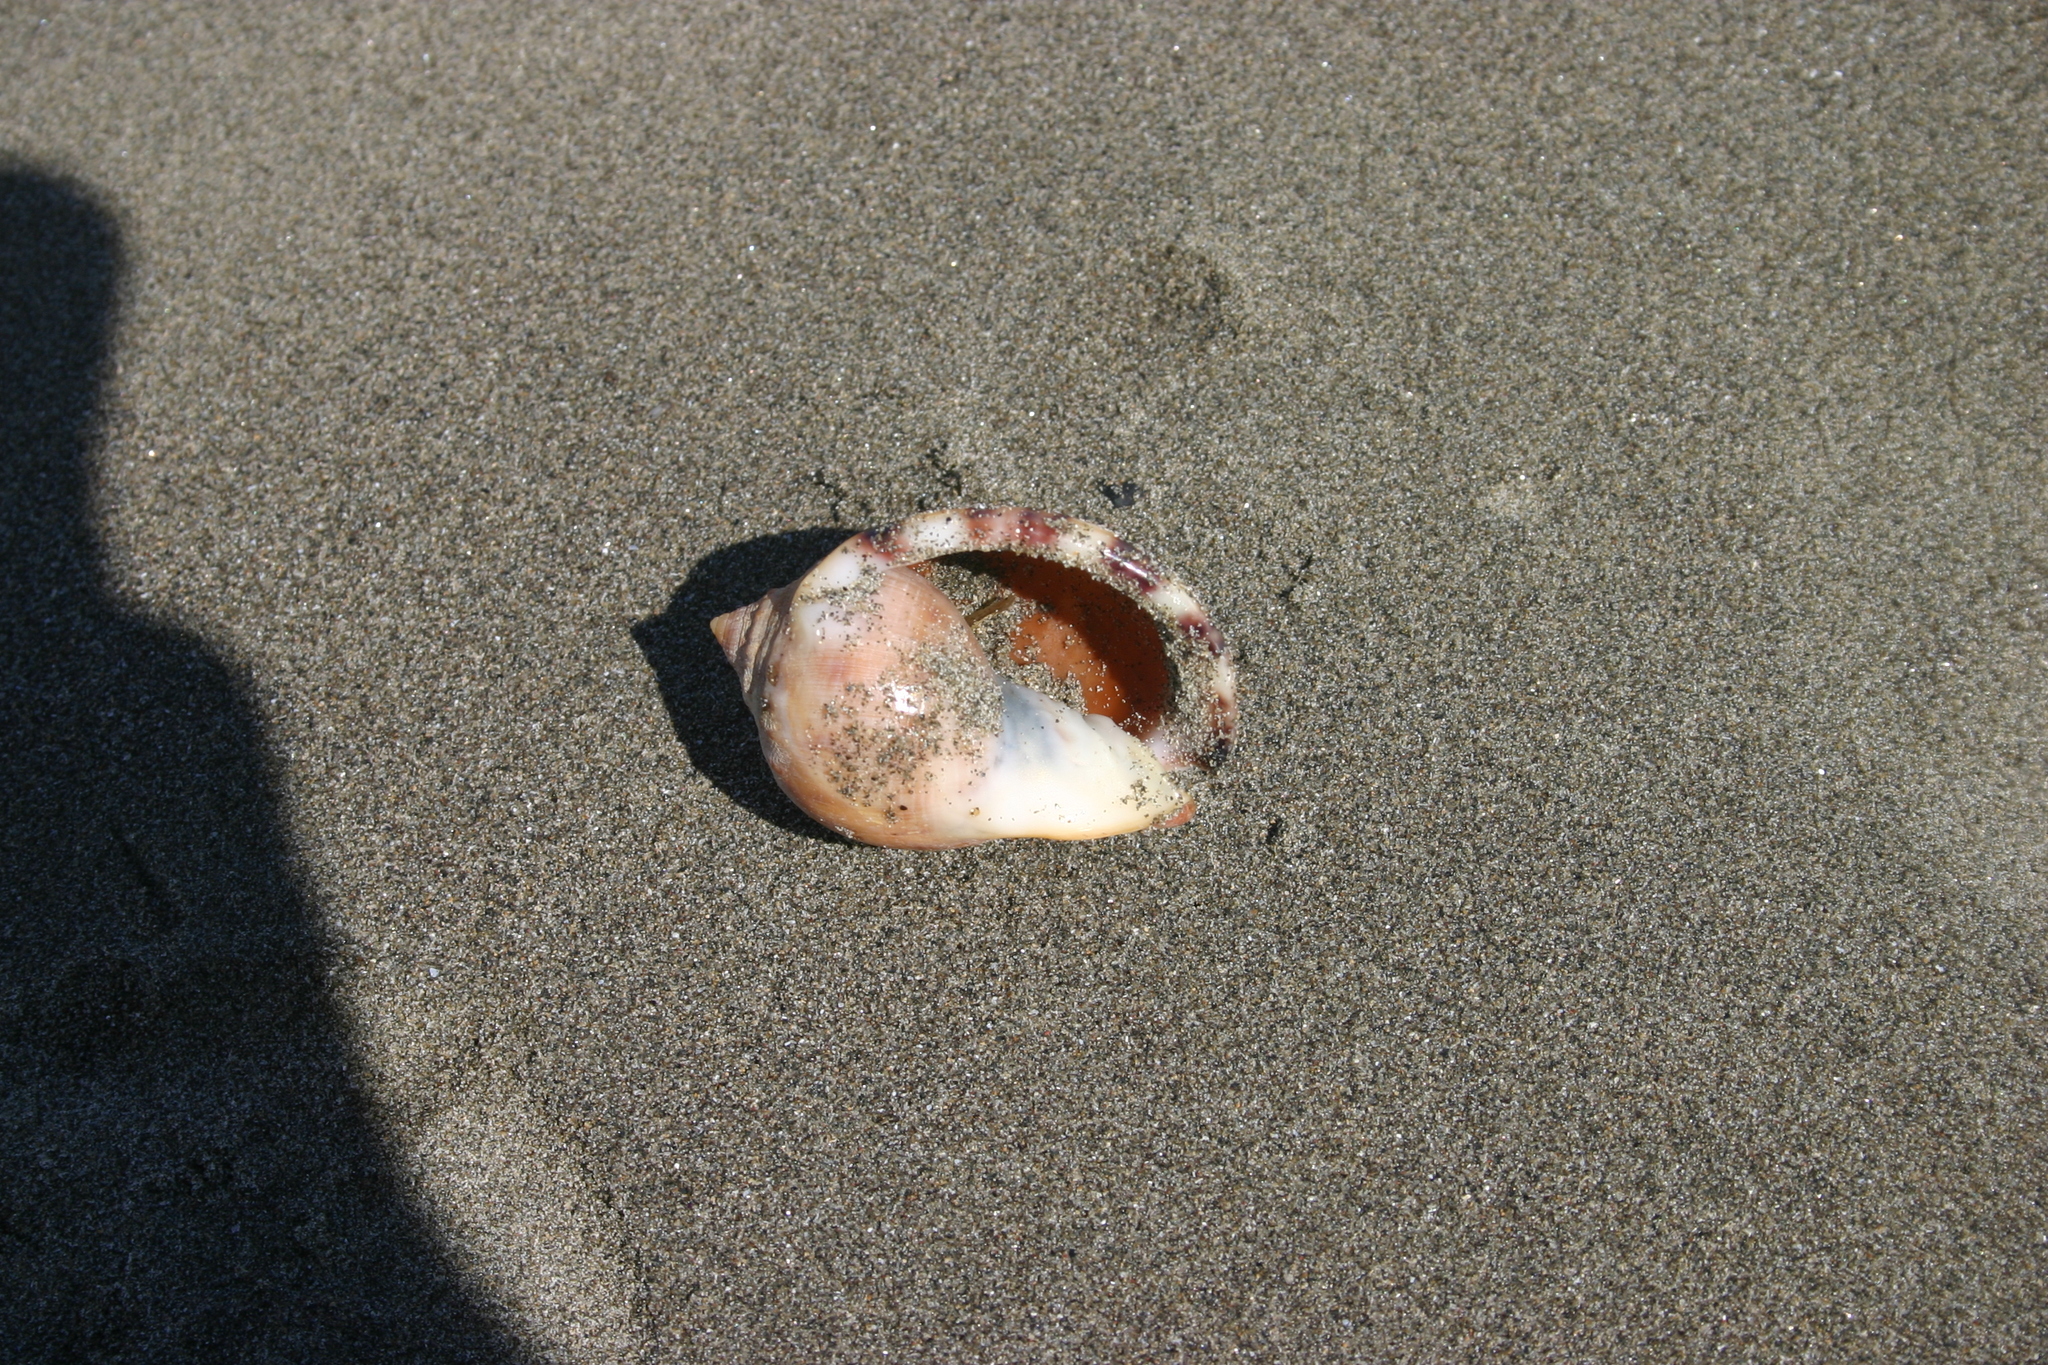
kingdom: Animalia
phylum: Mollusca
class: Gastropoda
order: Littorinimorpha
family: Cassidae
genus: Semicassis
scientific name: Semicassis pyrum
